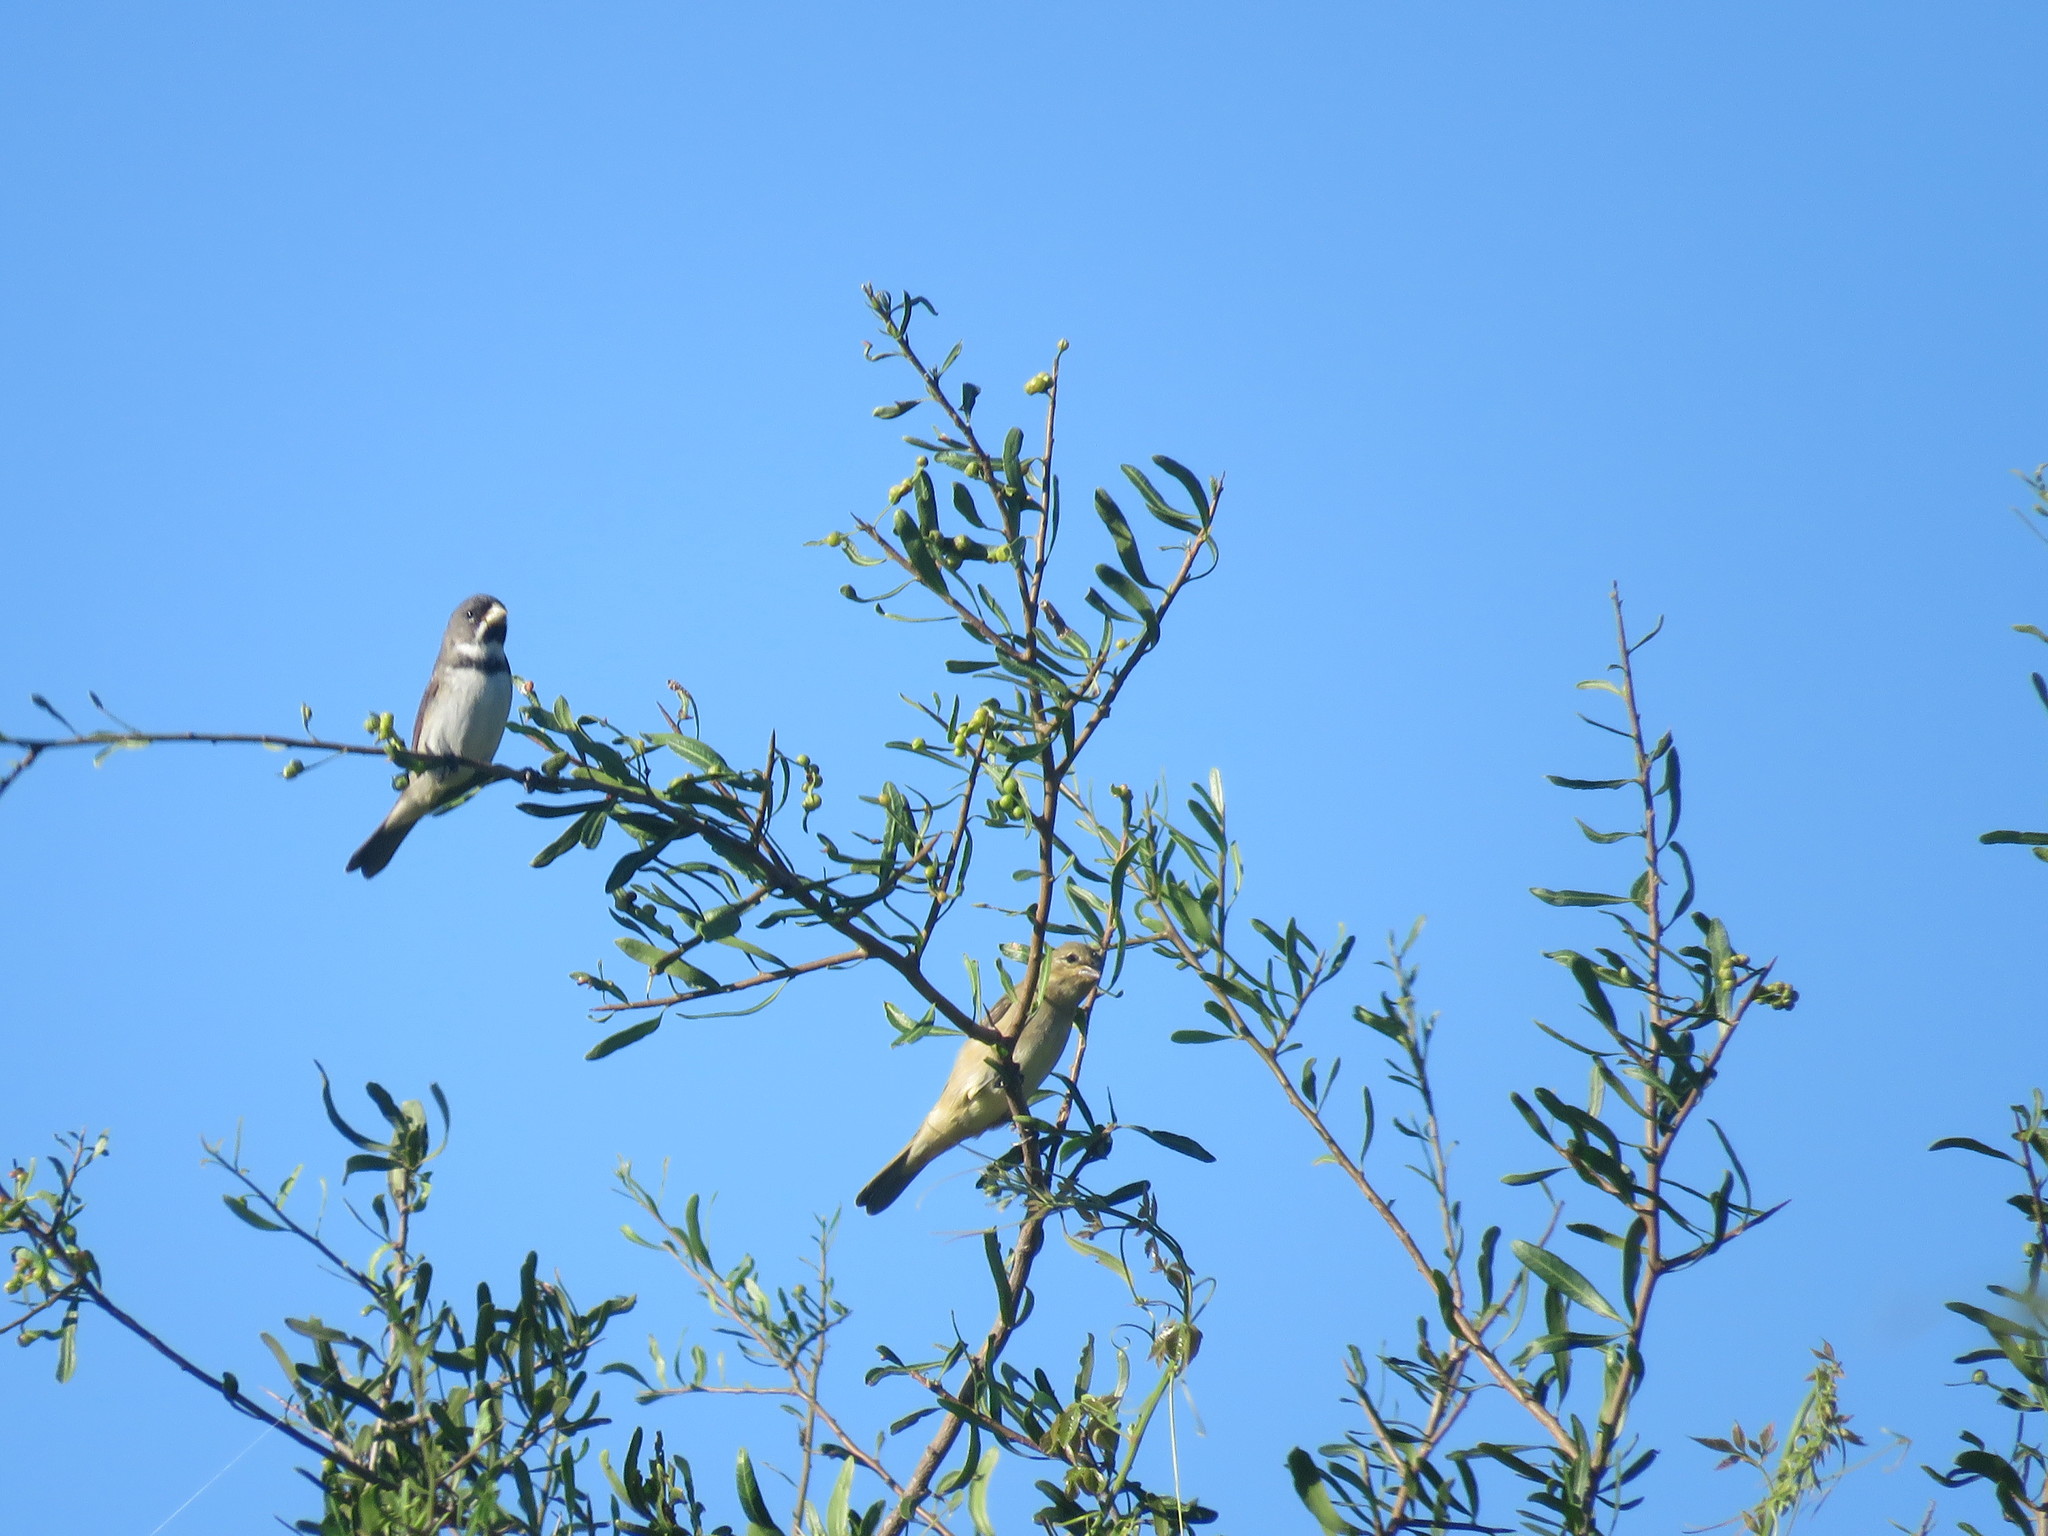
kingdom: Animalia
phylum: Chordata
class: Aves
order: Passeriformes
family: Thraupidae
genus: Sporophila
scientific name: Sporophila caerulescens
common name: Double-collared seedeater
